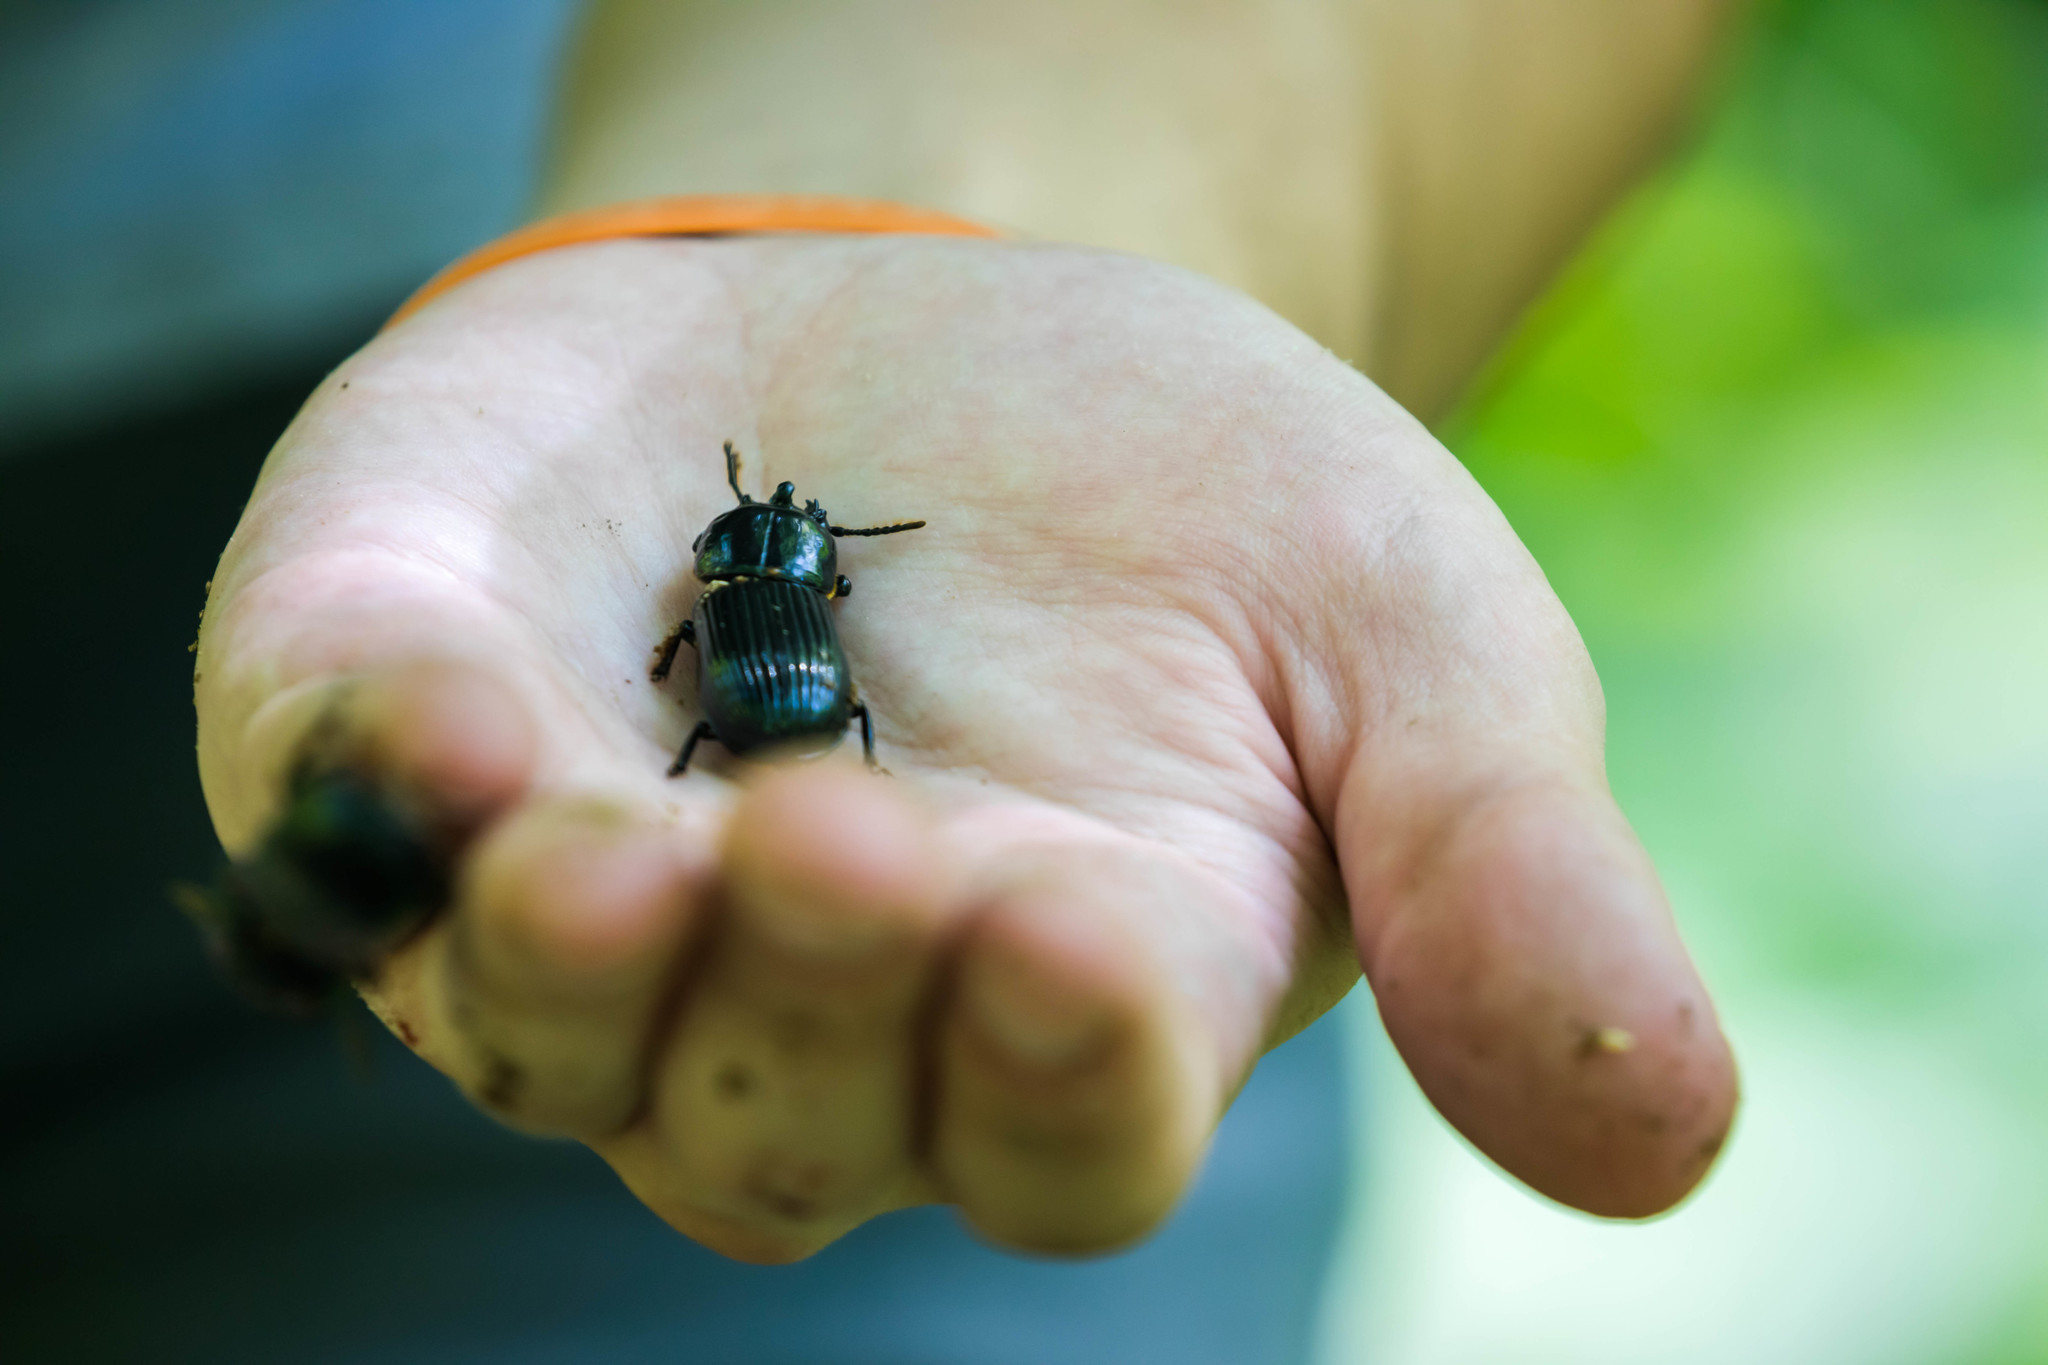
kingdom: Animalia
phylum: Arthropoda
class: Insecta
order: Coleoptera
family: Passalidae
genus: Odontotaenius
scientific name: Odontotaenius disjunctus
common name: Patent leather beetle
